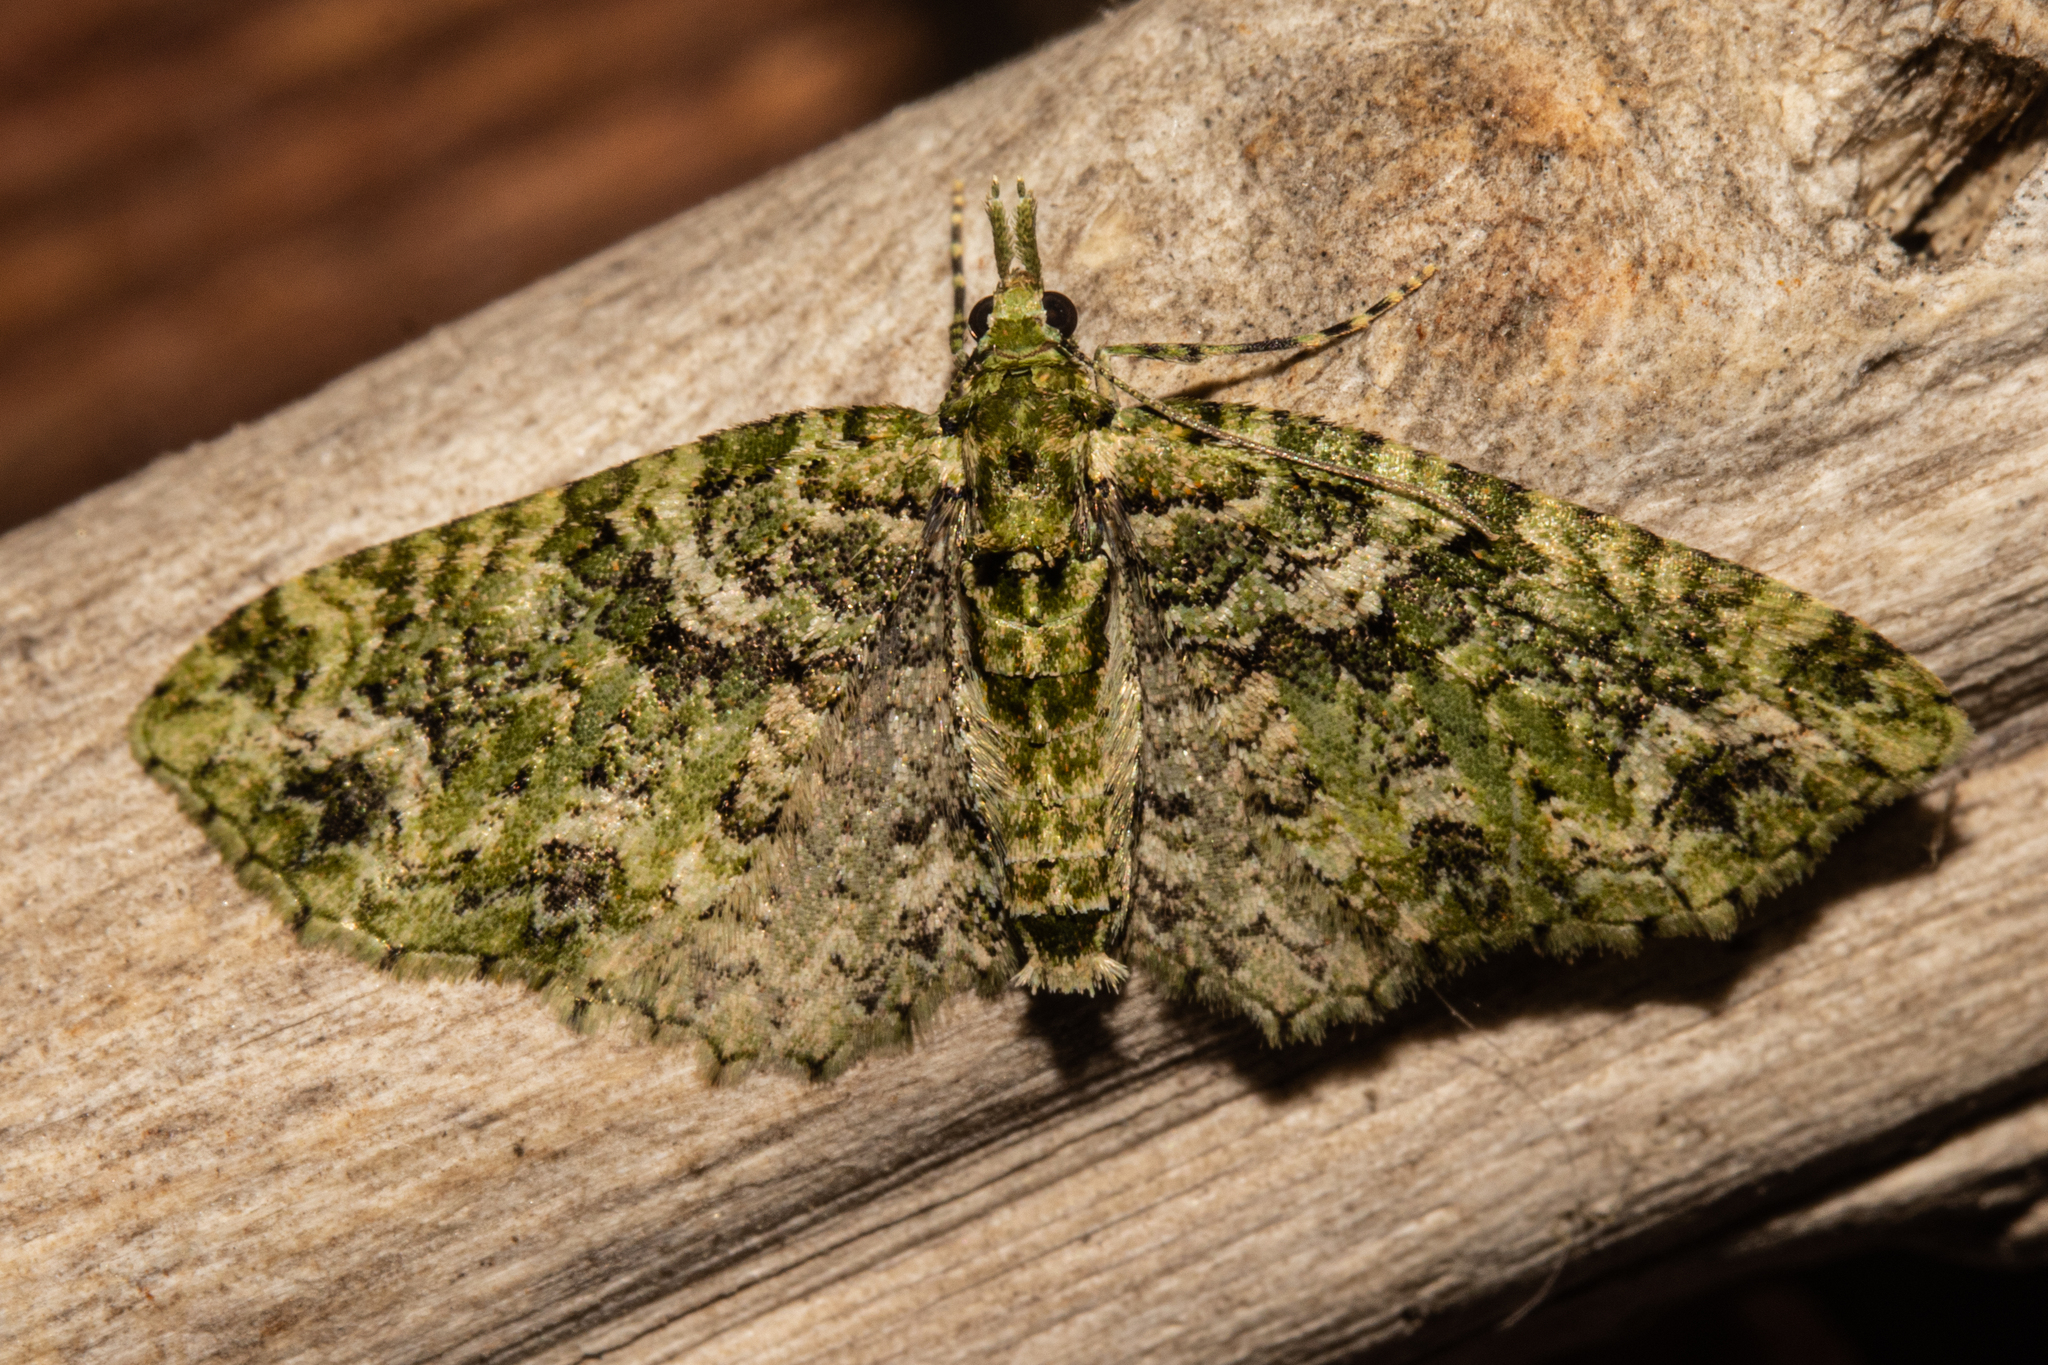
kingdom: Animalia
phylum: Arthropoda
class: Insecta
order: Lepidoptera
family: Geometridae
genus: Pasiphila
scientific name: Pasiphila muscosata
